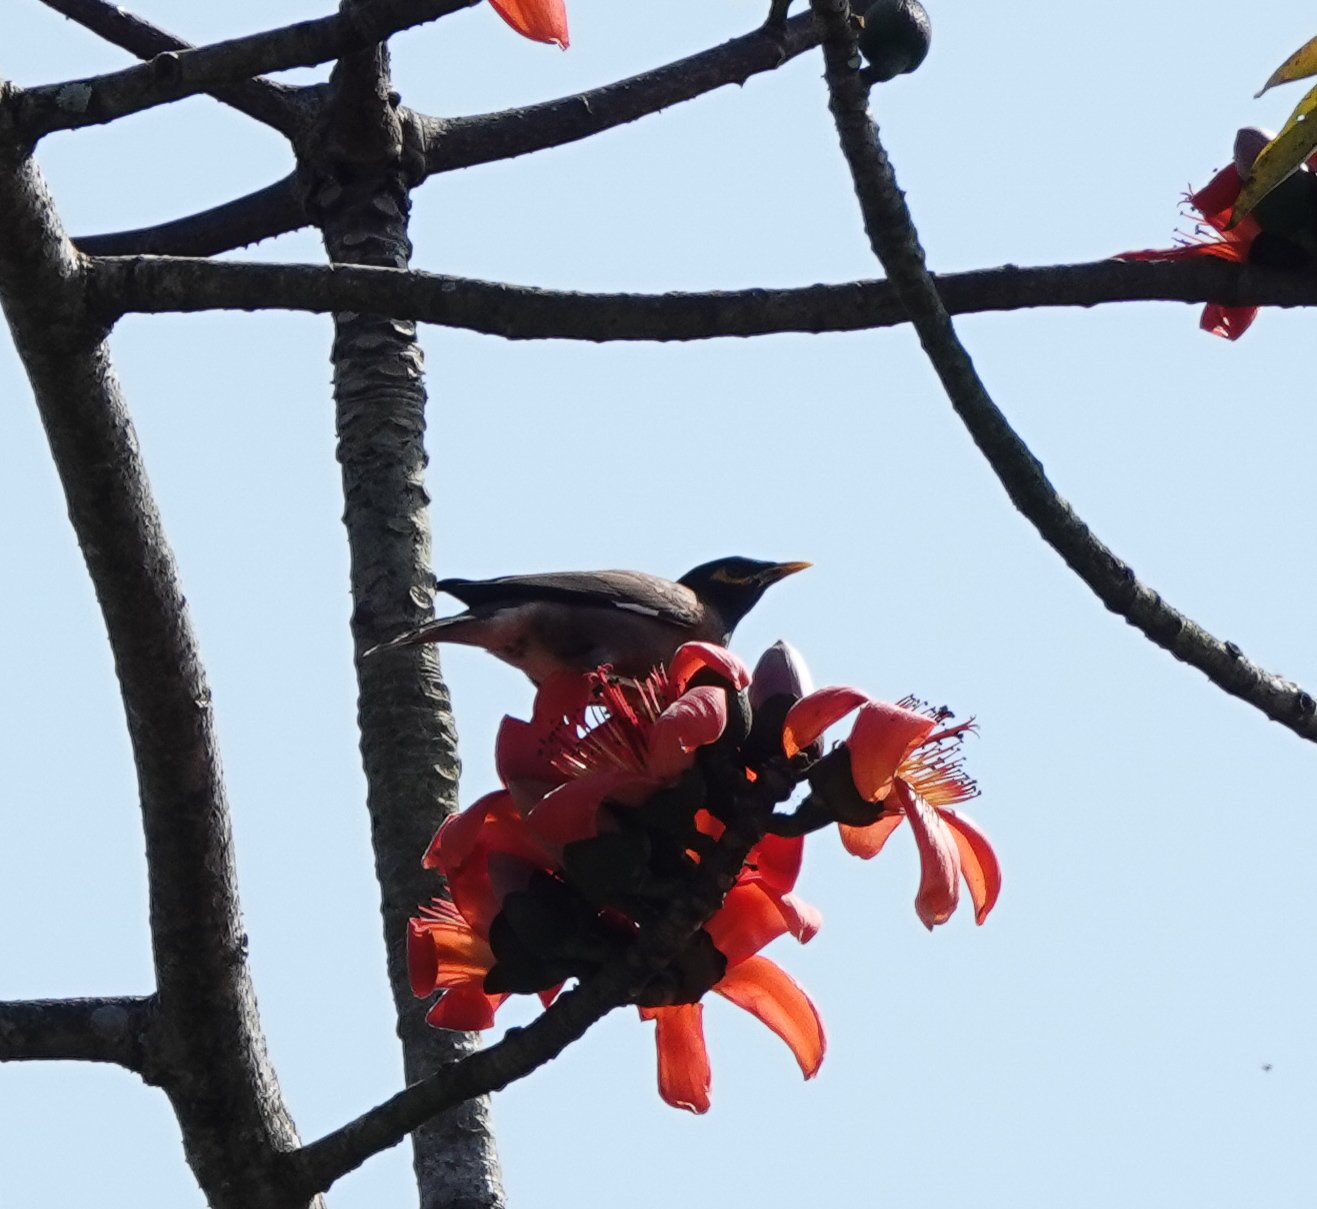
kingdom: Animalia
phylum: Chordata
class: Aves
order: Passeriformes
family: Sturnidae
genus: Acridotheres
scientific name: Acridotheres tristis
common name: Common myna
